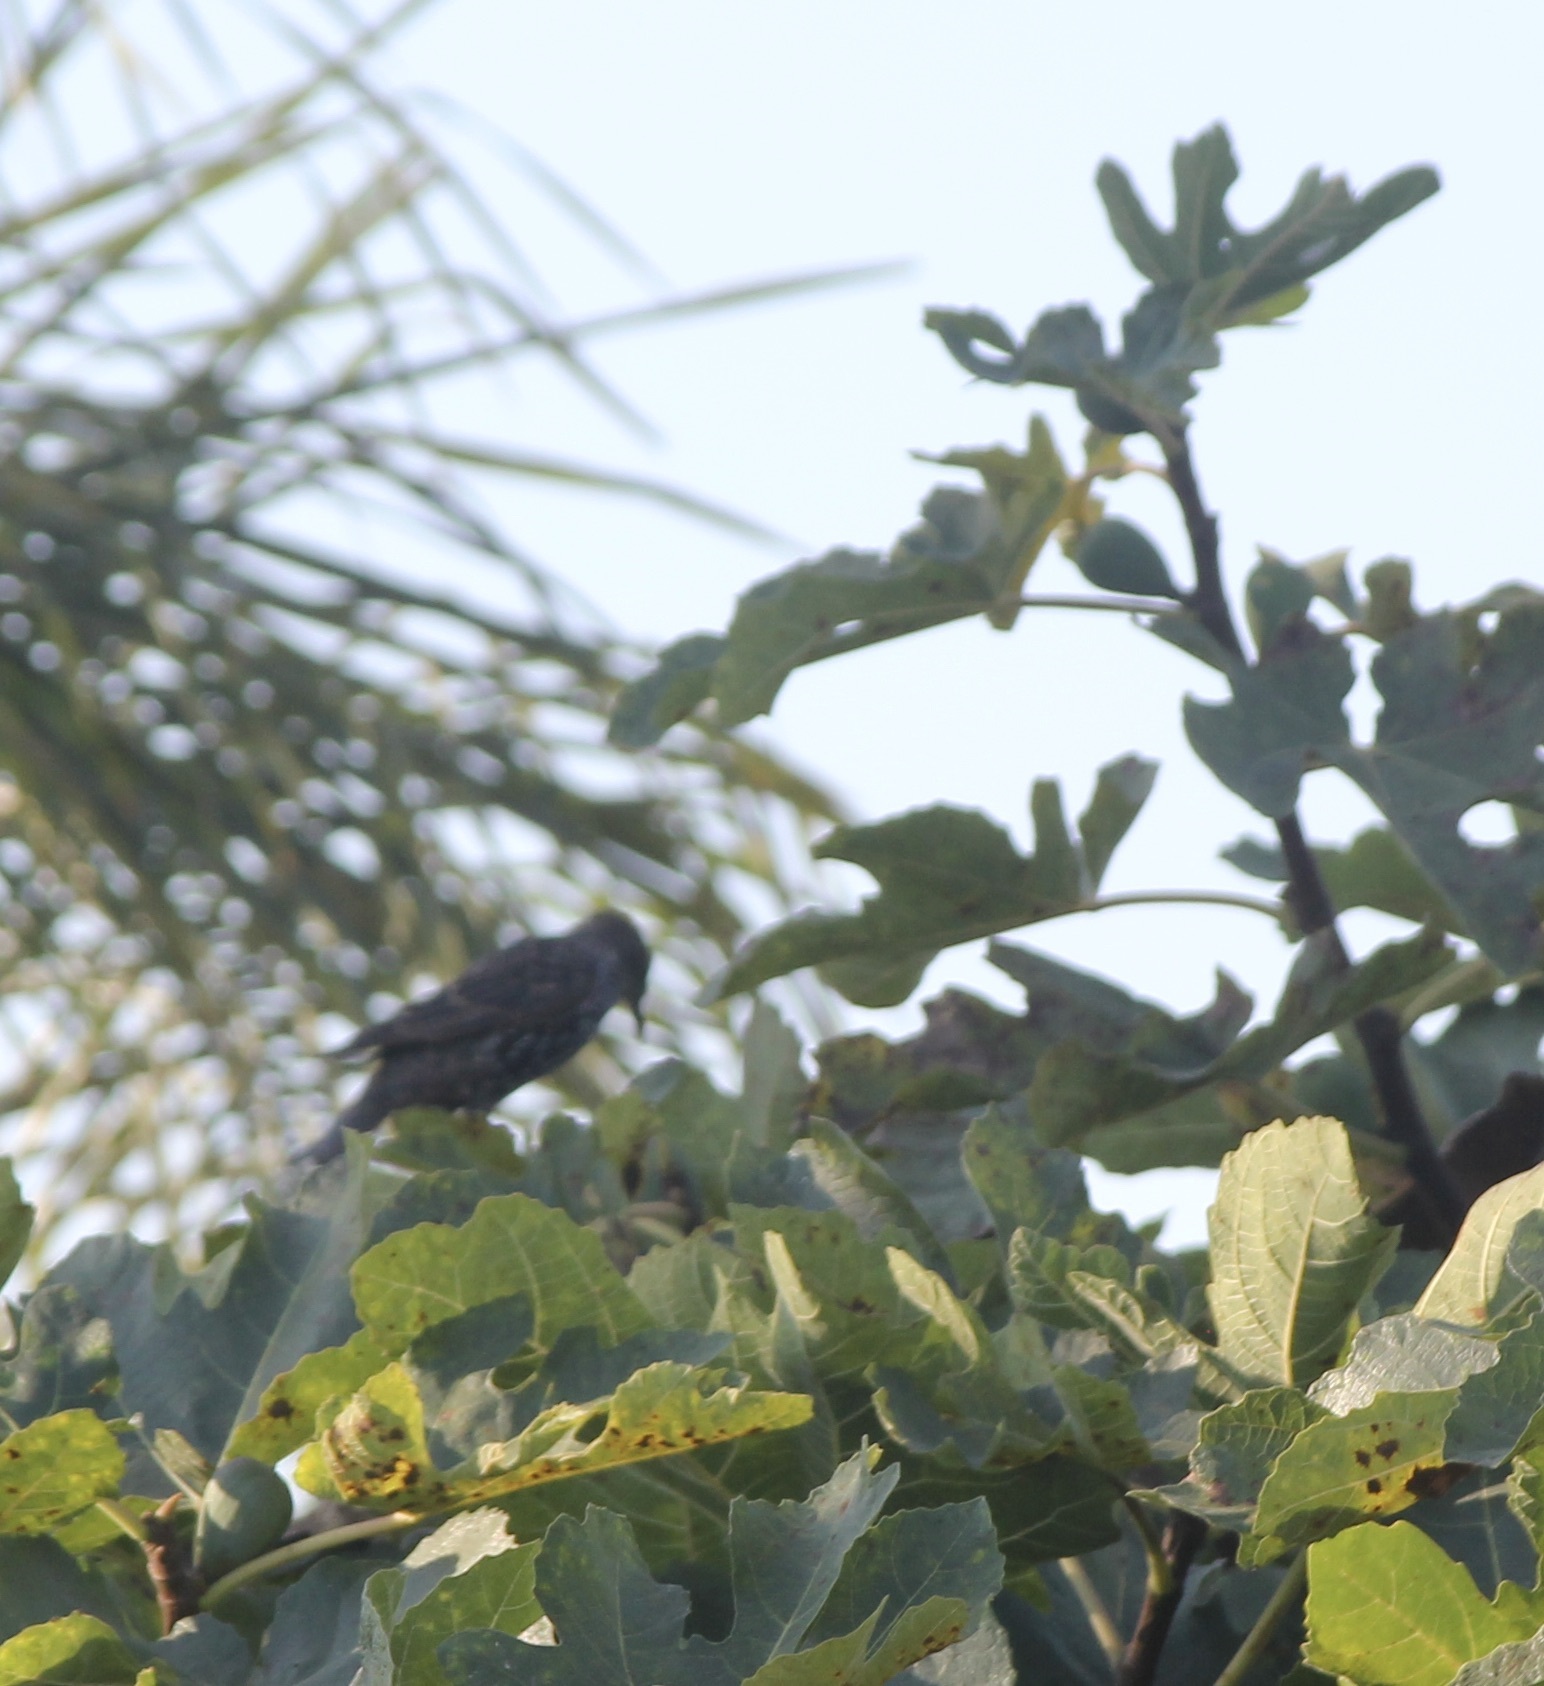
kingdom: Animalia
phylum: Chordata
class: Aves
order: Passeriformes
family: Sturnidae
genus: Sturnus
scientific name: Sturnus vulgaris
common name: Common starling
